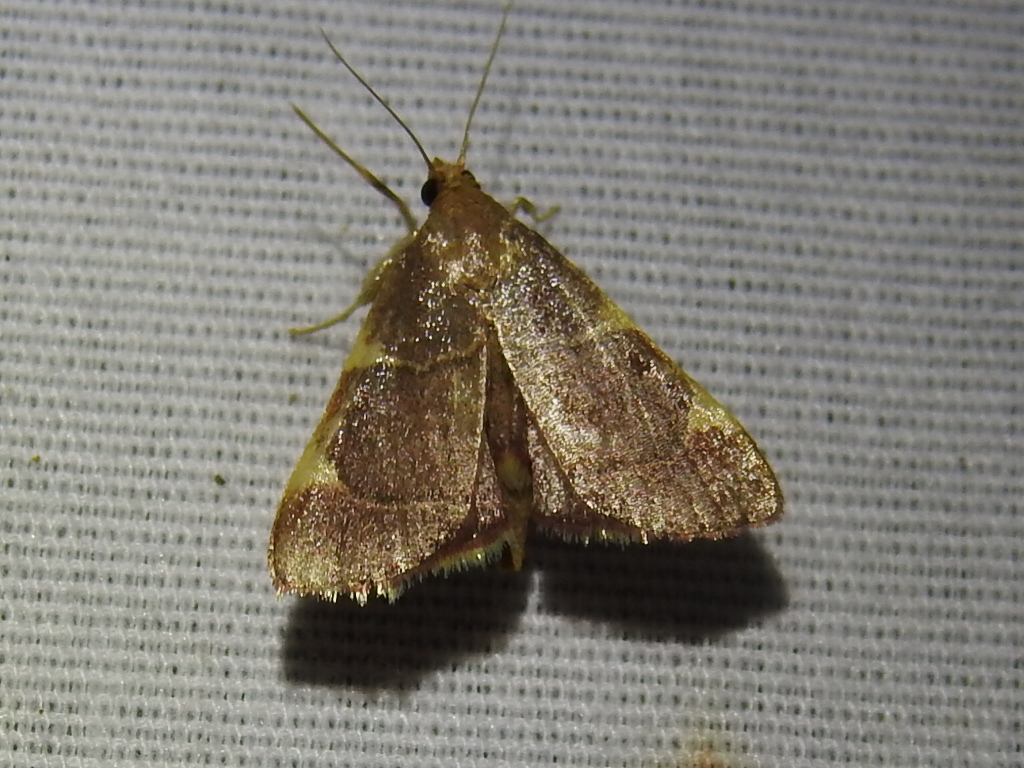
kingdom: Animalia
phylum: Arthropoda
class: Insecta
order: Lepidoptera
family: Pyralidae
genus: Hypsopygia
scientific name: Hypsopygia olinalis
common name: Yellow-fringed dolichomia moth
